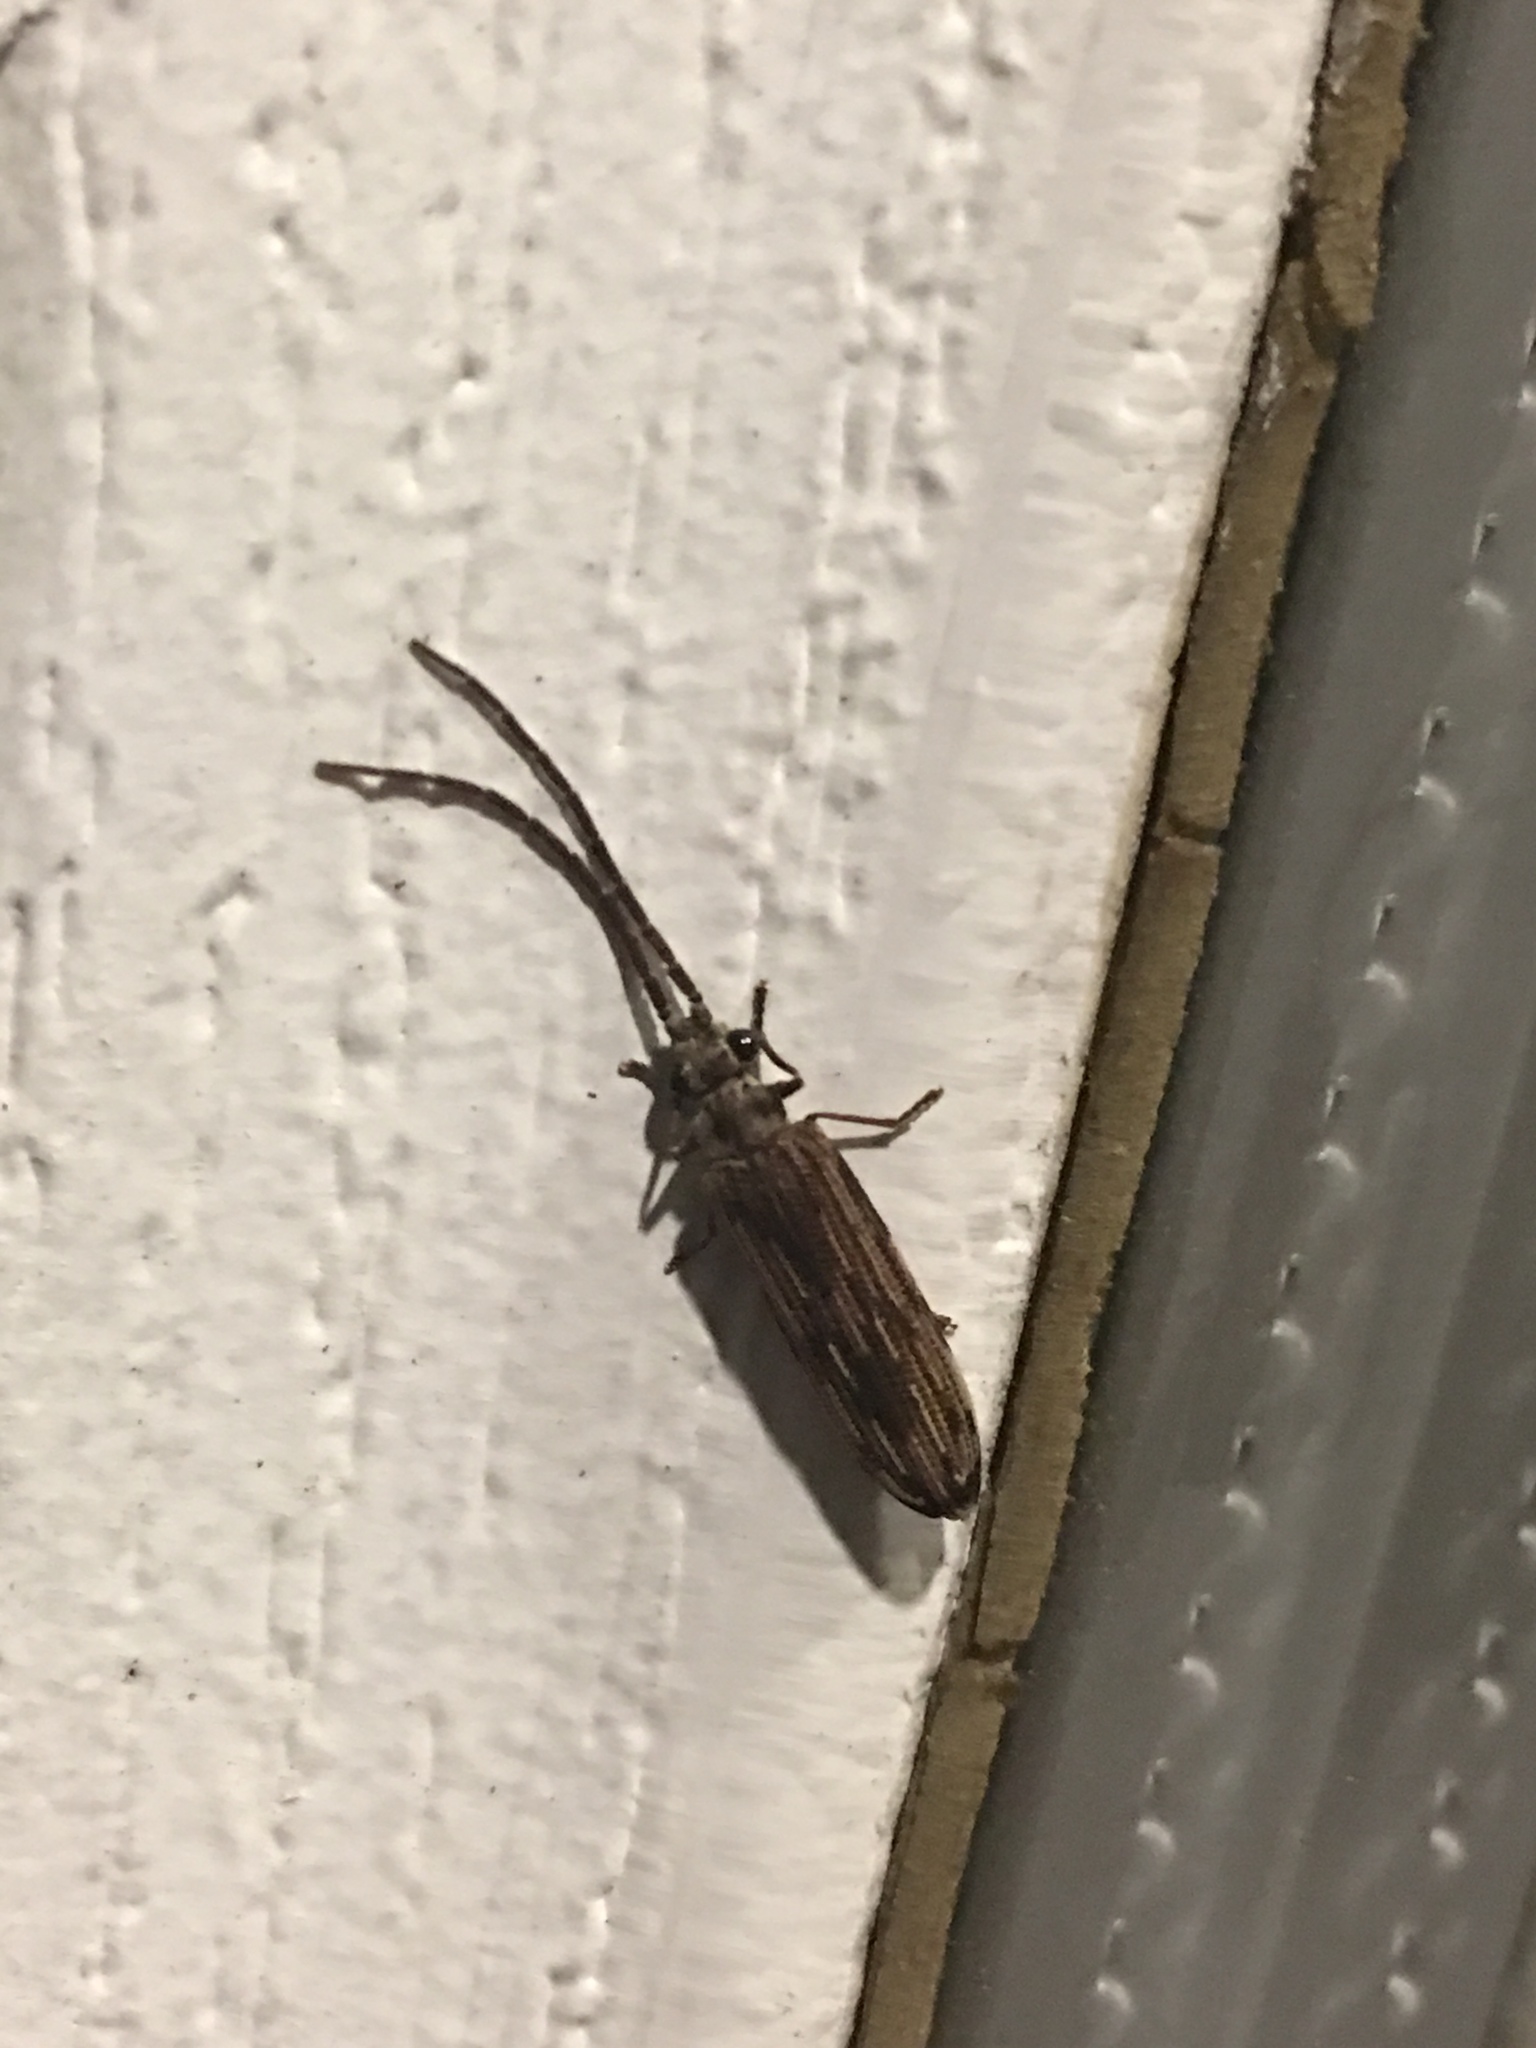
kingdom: Animalia
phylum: Arthropoda
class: Insecta
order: Coleoptera
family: Cupedidae
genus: Tenomerga
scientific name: Tenomerga cinerea
